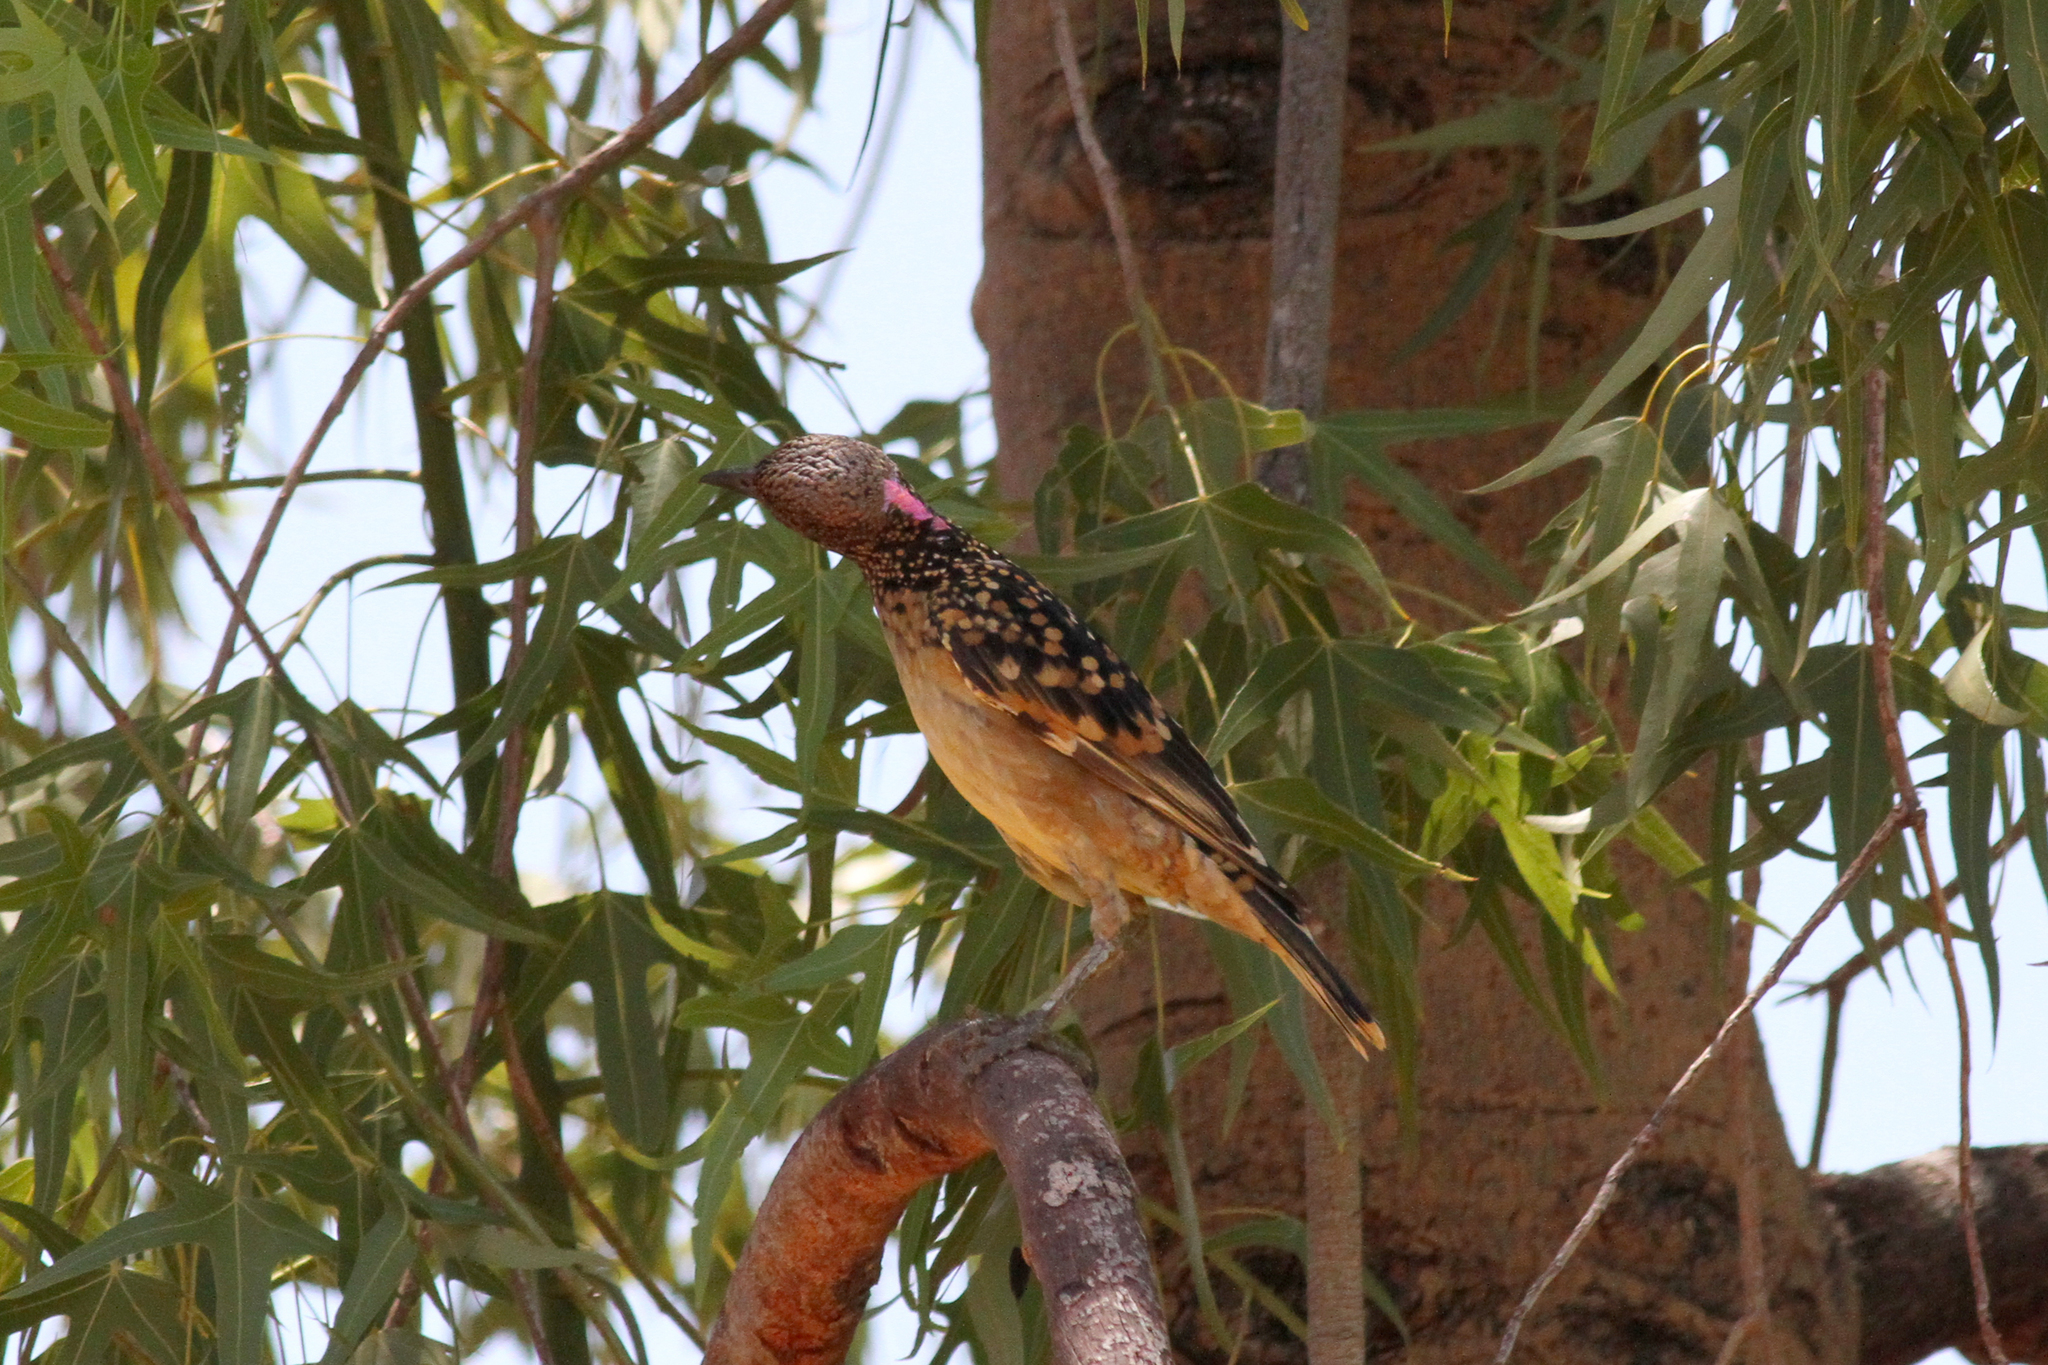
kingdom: Animalia
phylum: Chordata
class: Aves
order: Passeriformes
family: Ptilonorhynchidae
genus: Chlamydera
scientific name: Chlamydera guttata
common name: Western bowerbird
